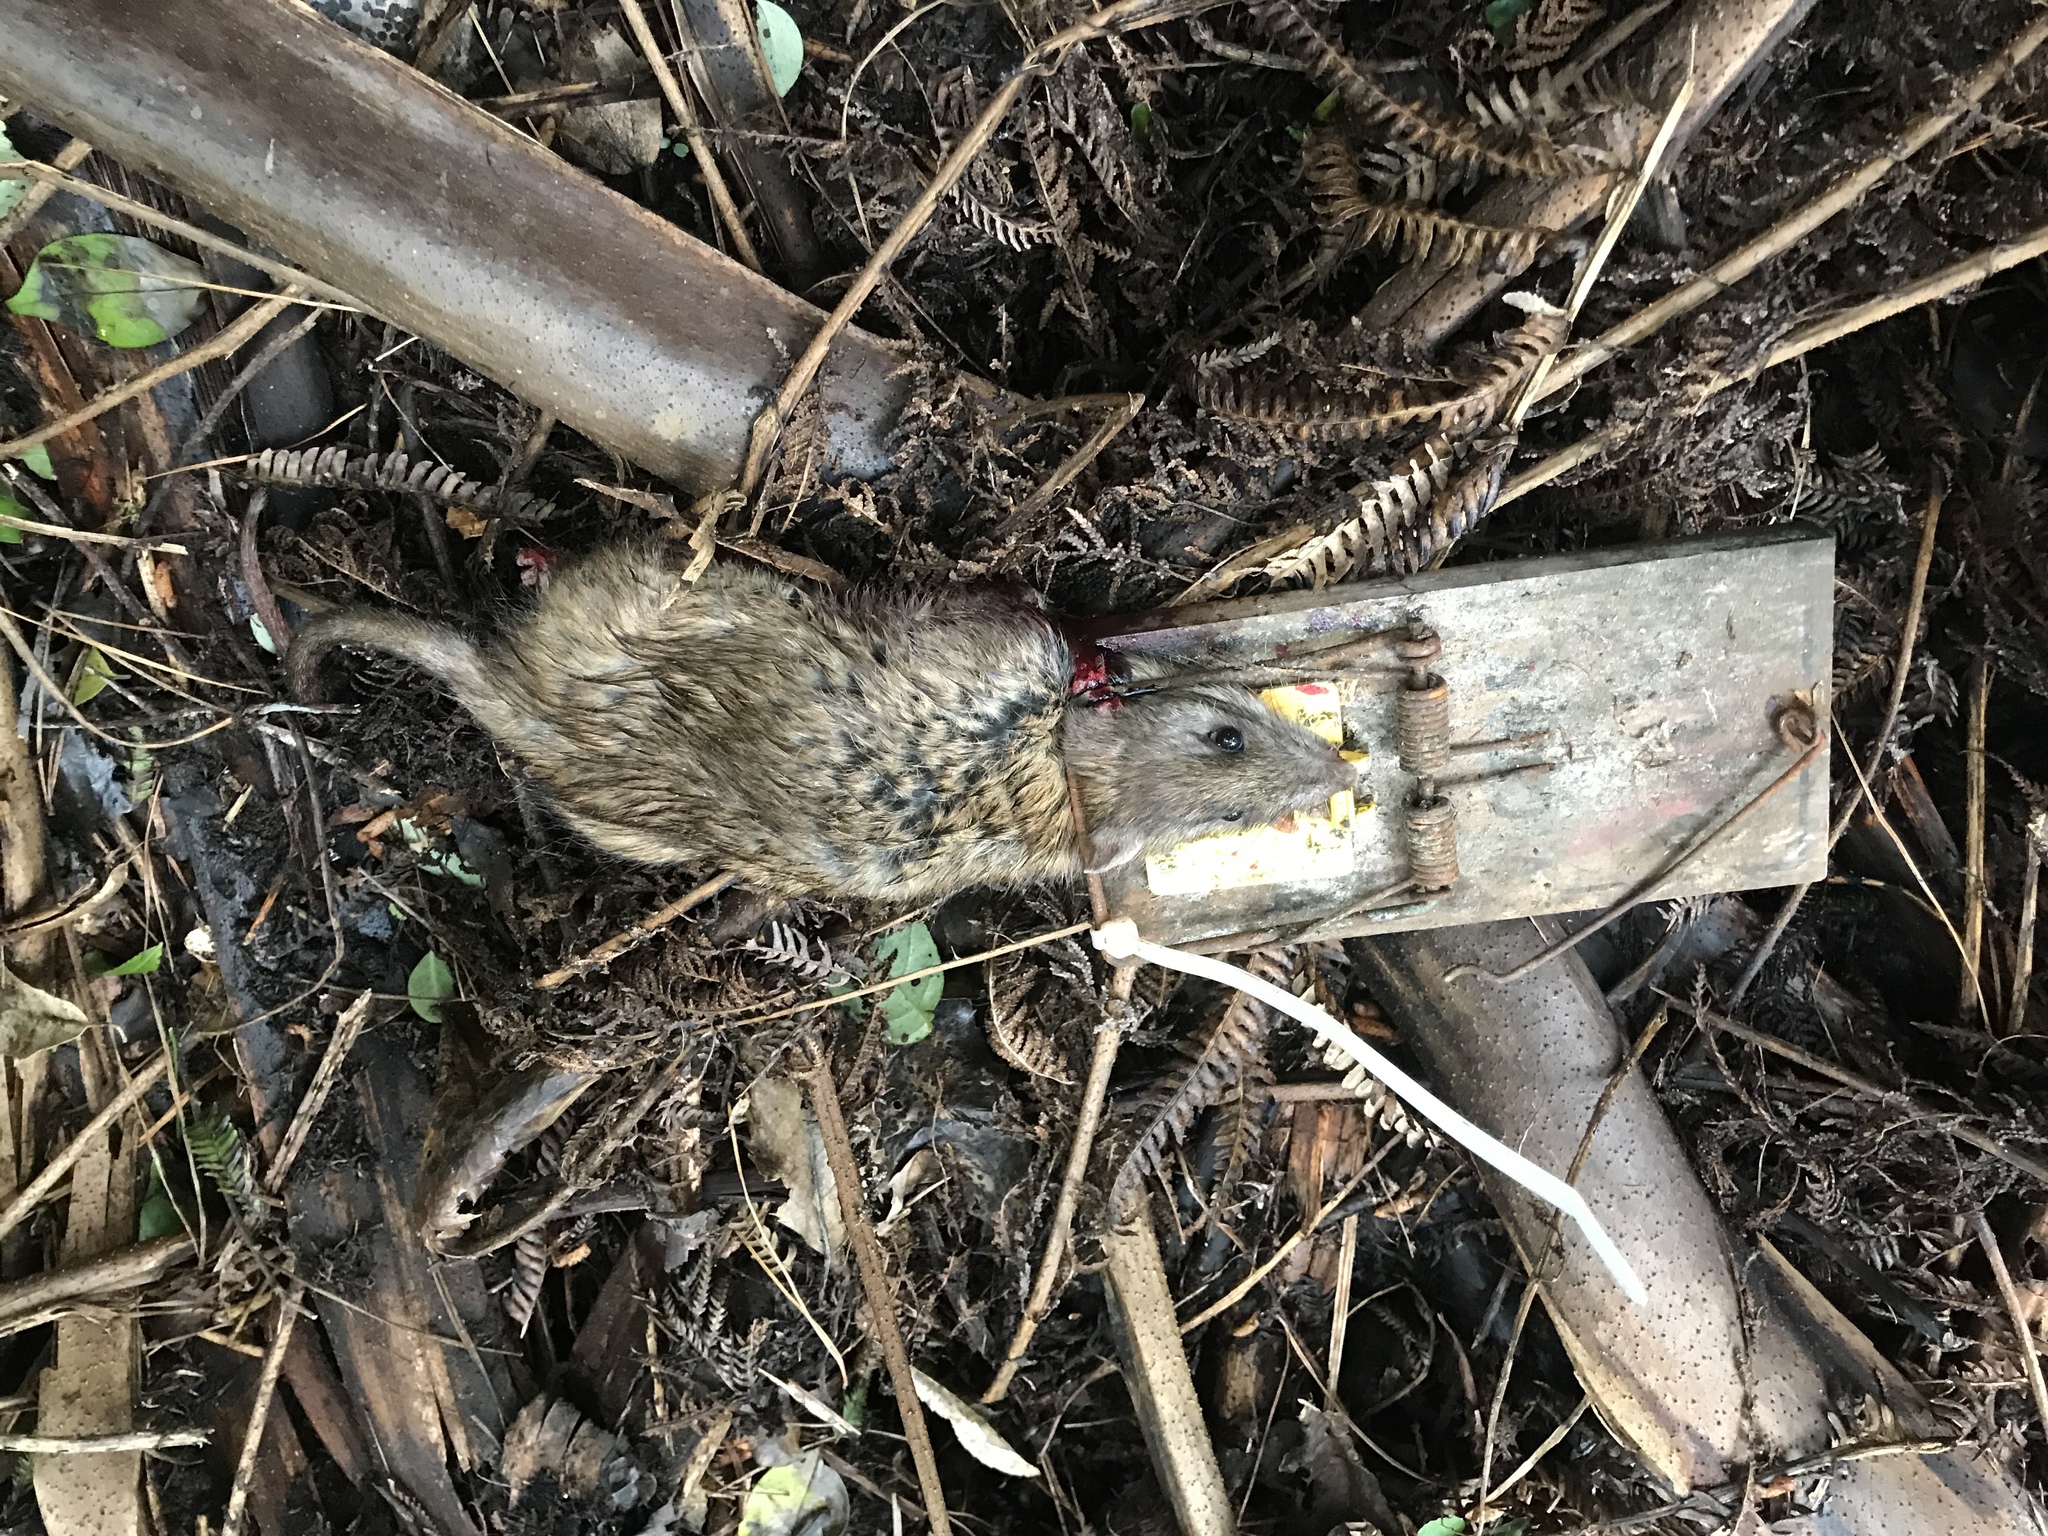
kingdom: Animalia
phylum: Chordata
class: Mammalia
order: Rodentia
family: Muridae
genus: Rattus
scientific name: Rattus norvegicus
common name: Brown rat
